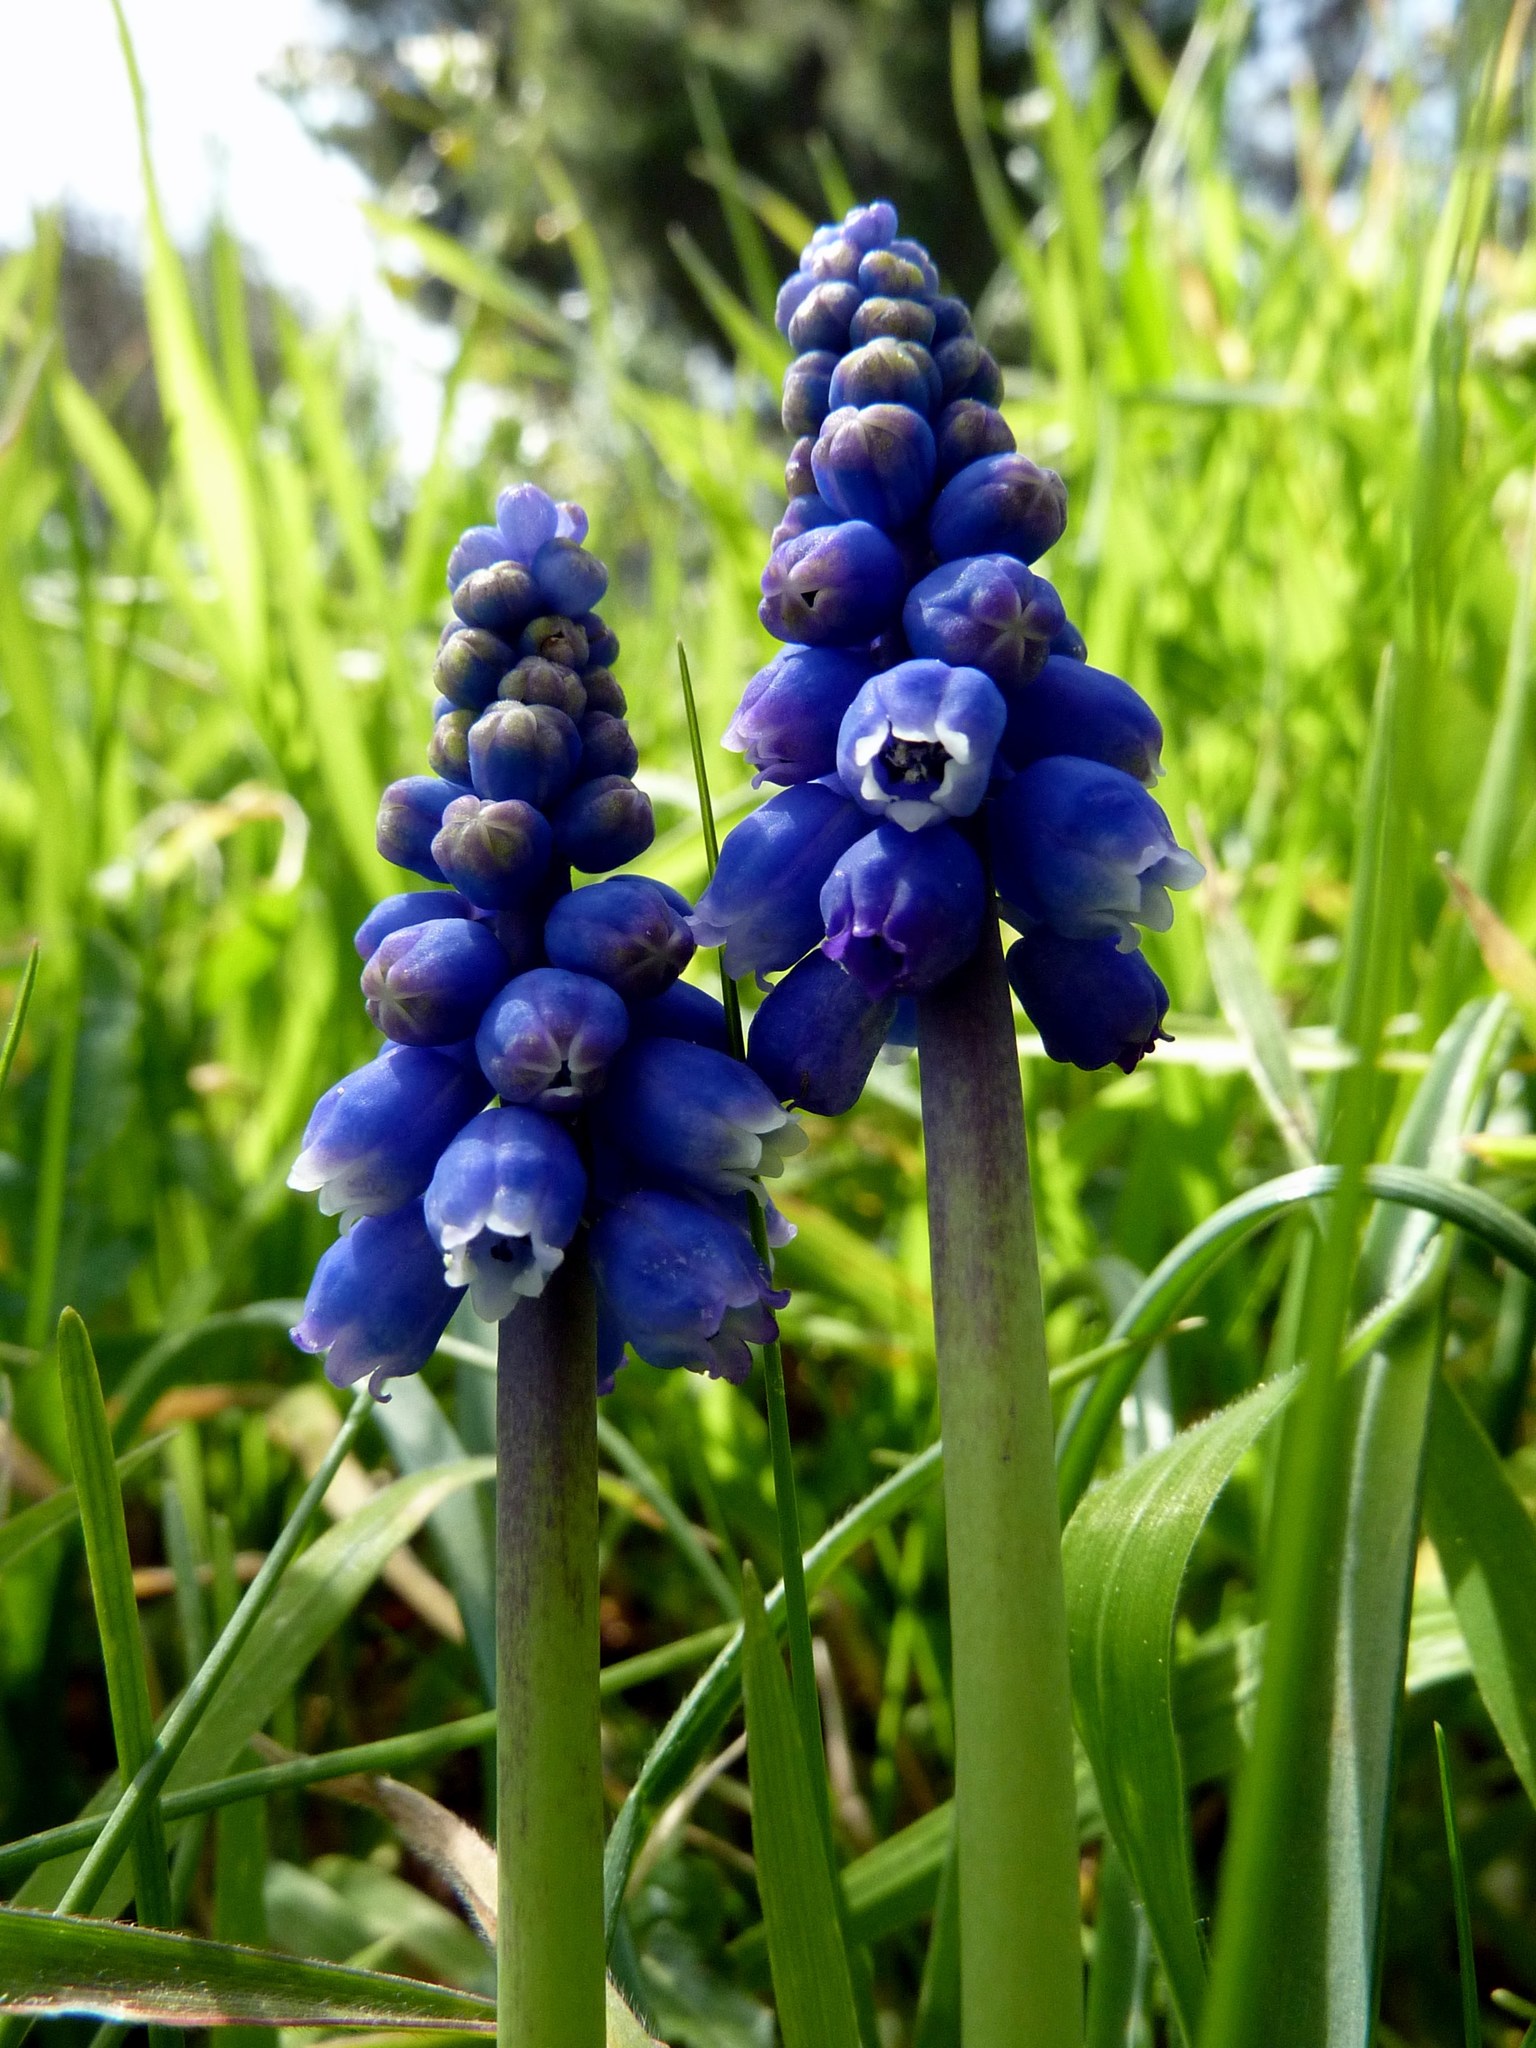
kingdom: Plantae
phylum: Tracheophyta
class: Liliopsida
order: Asparagales
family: Asparagaceae
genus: Muscari
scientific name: Muscari armeniacum
